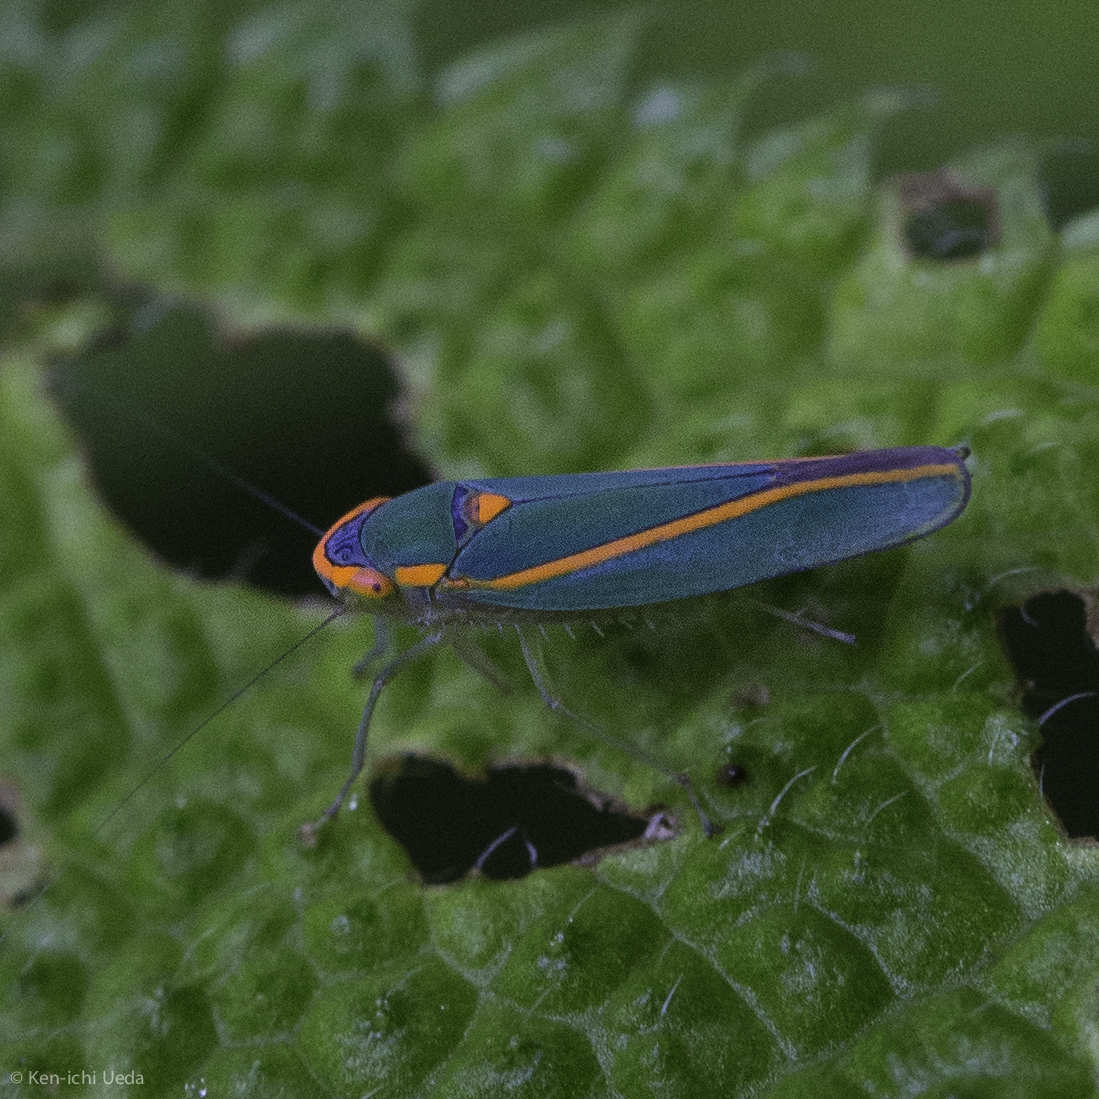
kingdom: Animalia
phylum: Arthropoda
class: Insecta
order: Hemiptera
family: Cicadellidae
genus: Sibovia
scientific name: Sibovia pileata
